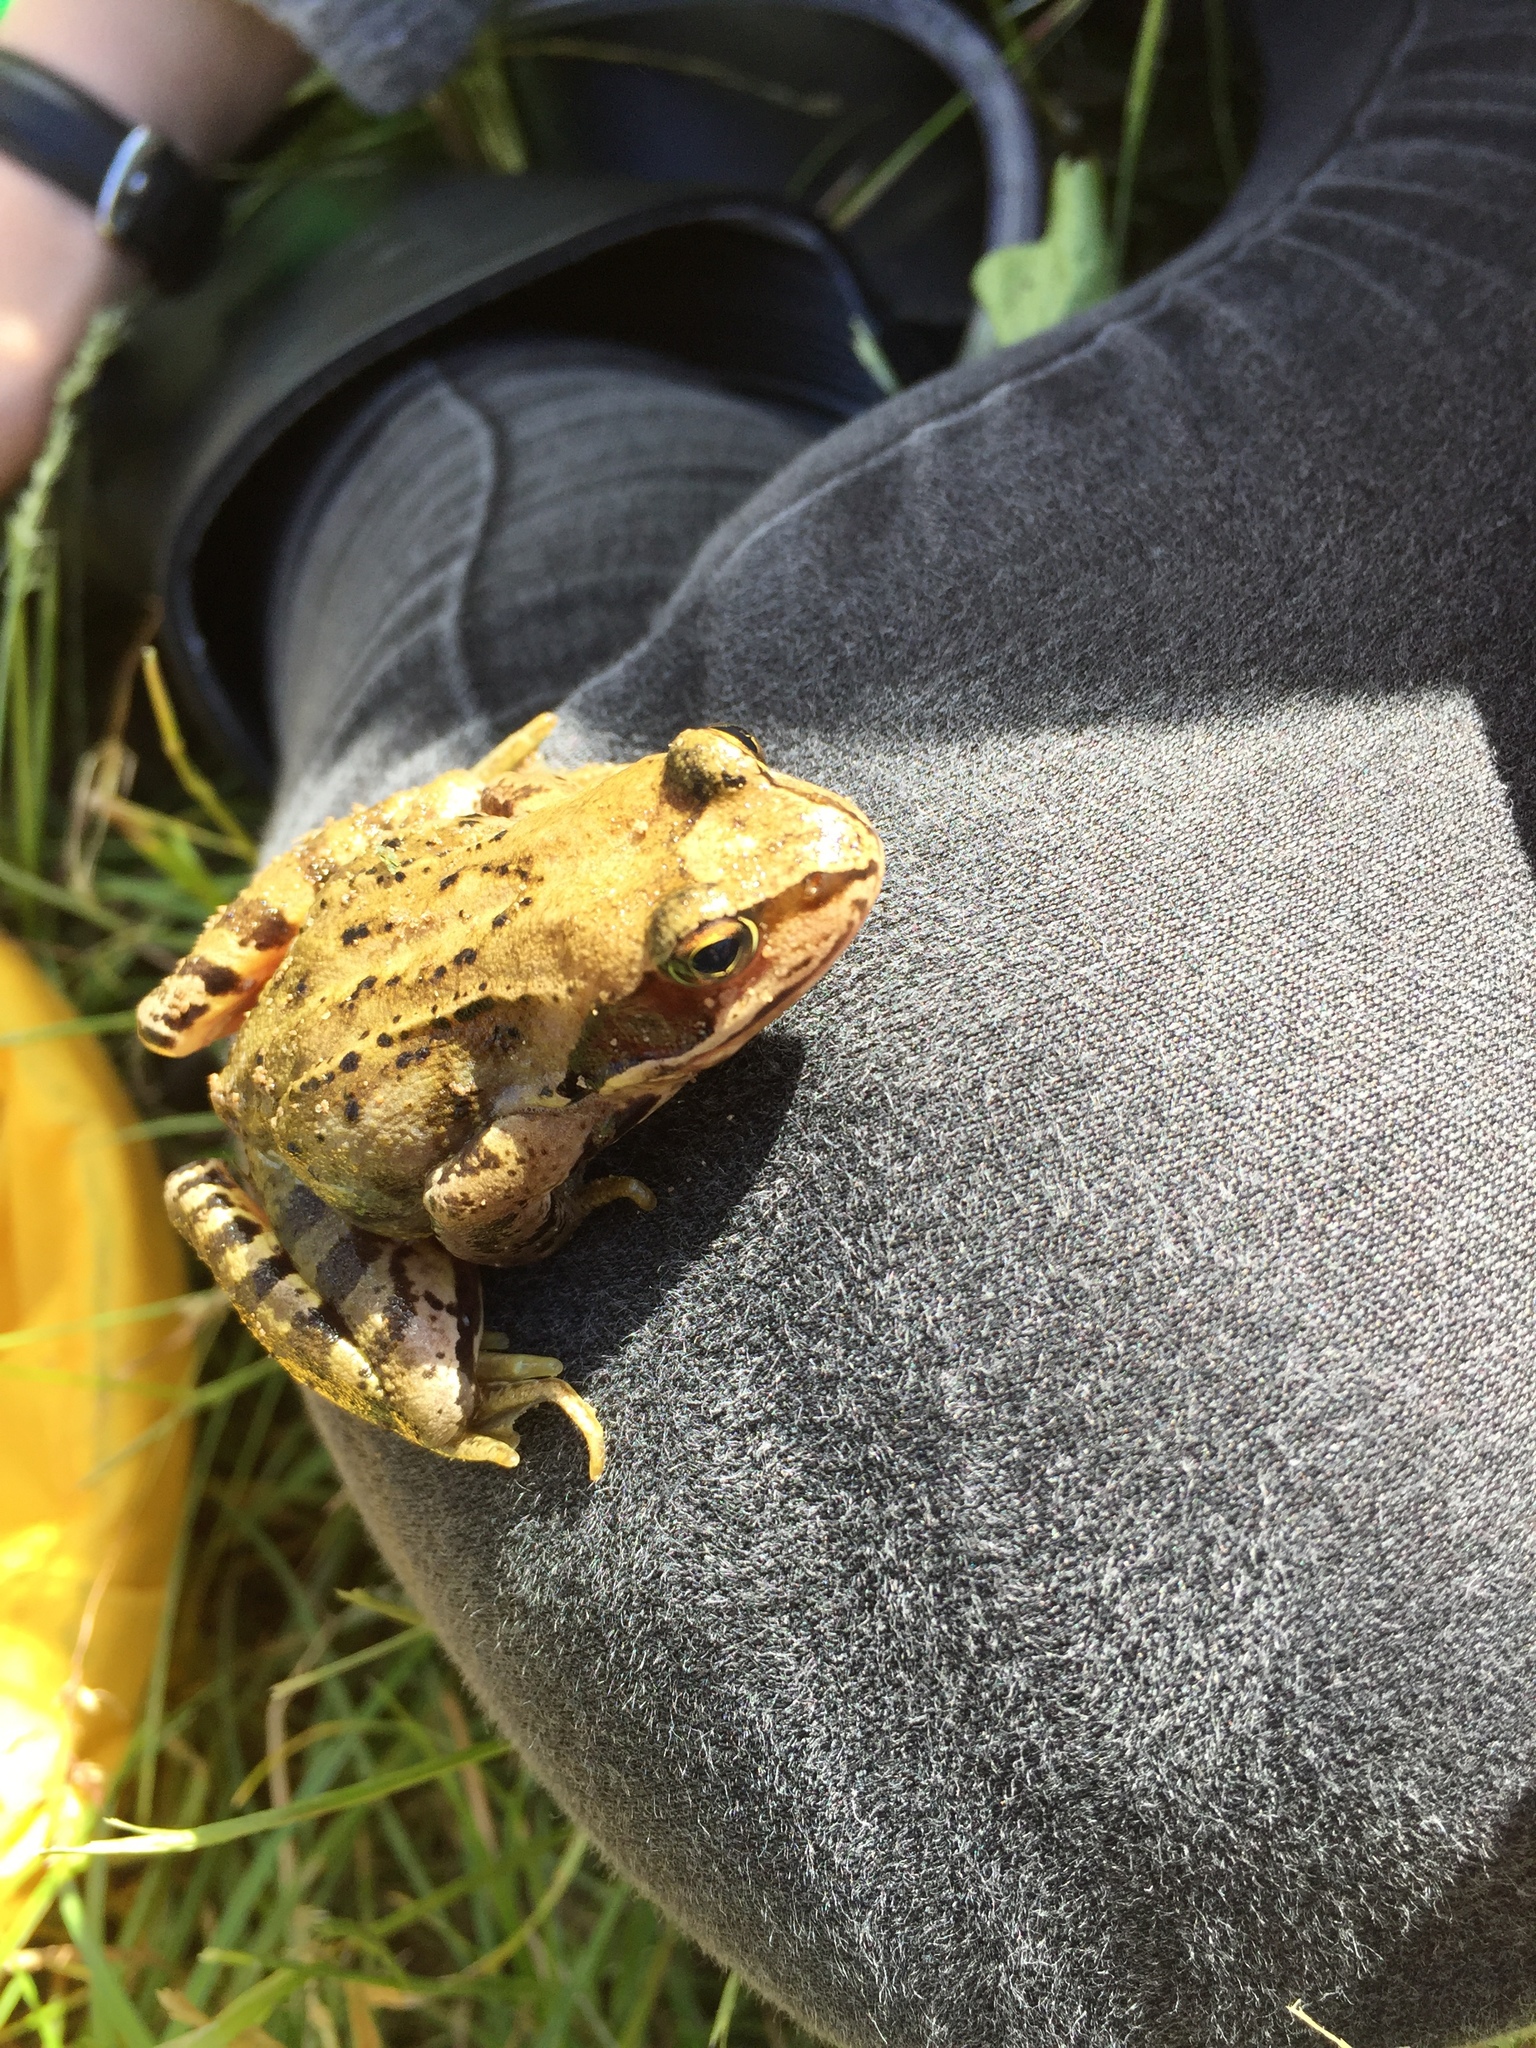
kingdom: Animalia
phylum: Chordata
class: Amphibia
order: Anura
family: Ranidae
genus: Rana
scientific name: Rana temporaria
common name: Common frog
